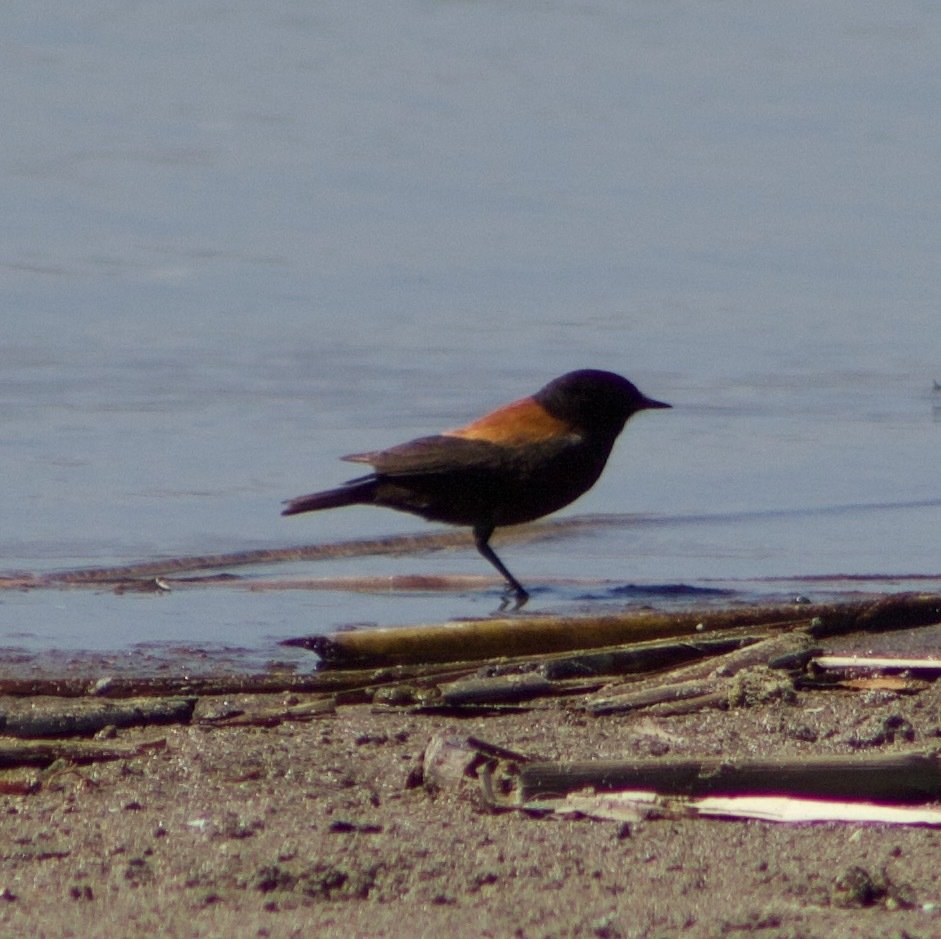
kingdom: Animalia
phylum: Chordata
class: Aves
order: Passeriformes
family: Tyrannidae
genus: Lessonia
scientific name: Lessonia rufa
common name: Austral negrito
